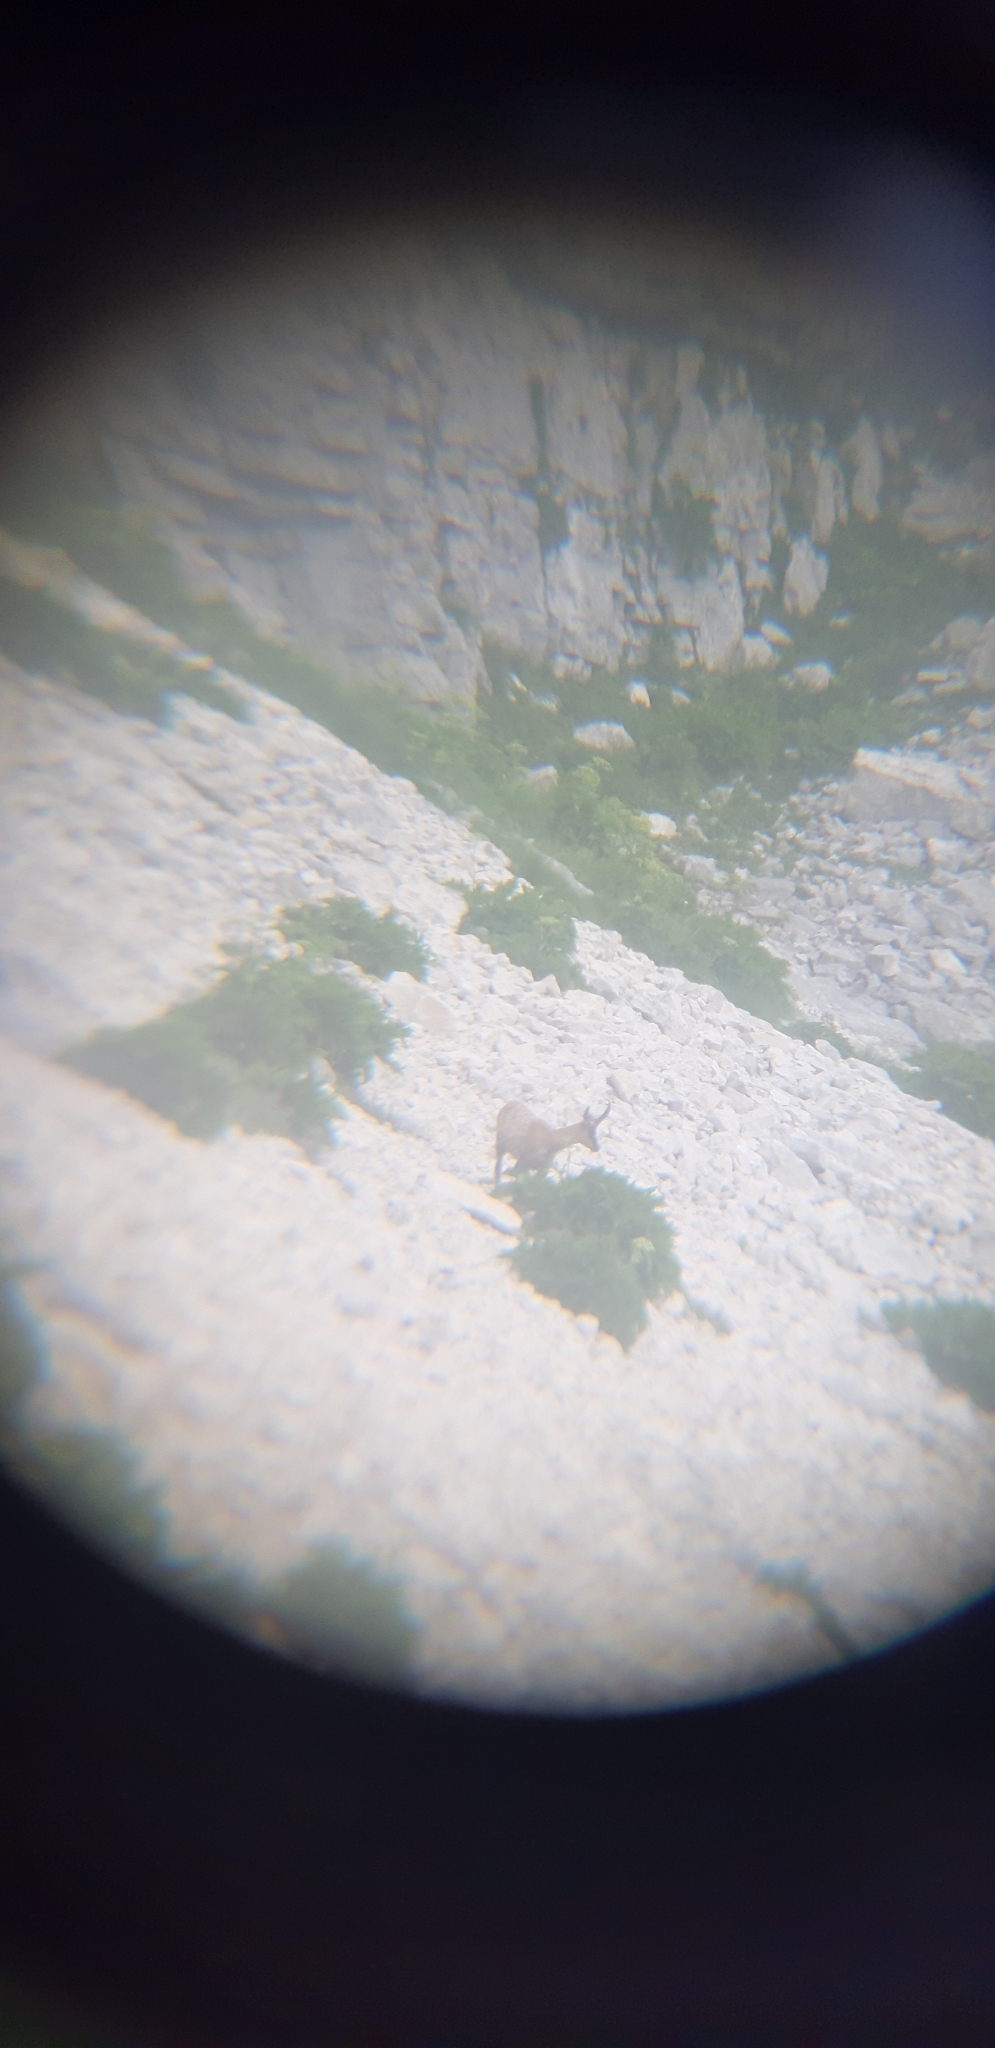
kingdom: Animalia
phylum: Chordata
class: Mammalia
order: Artiodactyla
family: Bovidae
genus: Rupicapra
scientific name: Rupicapra pyrenaica
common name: Pyrenean chamois
